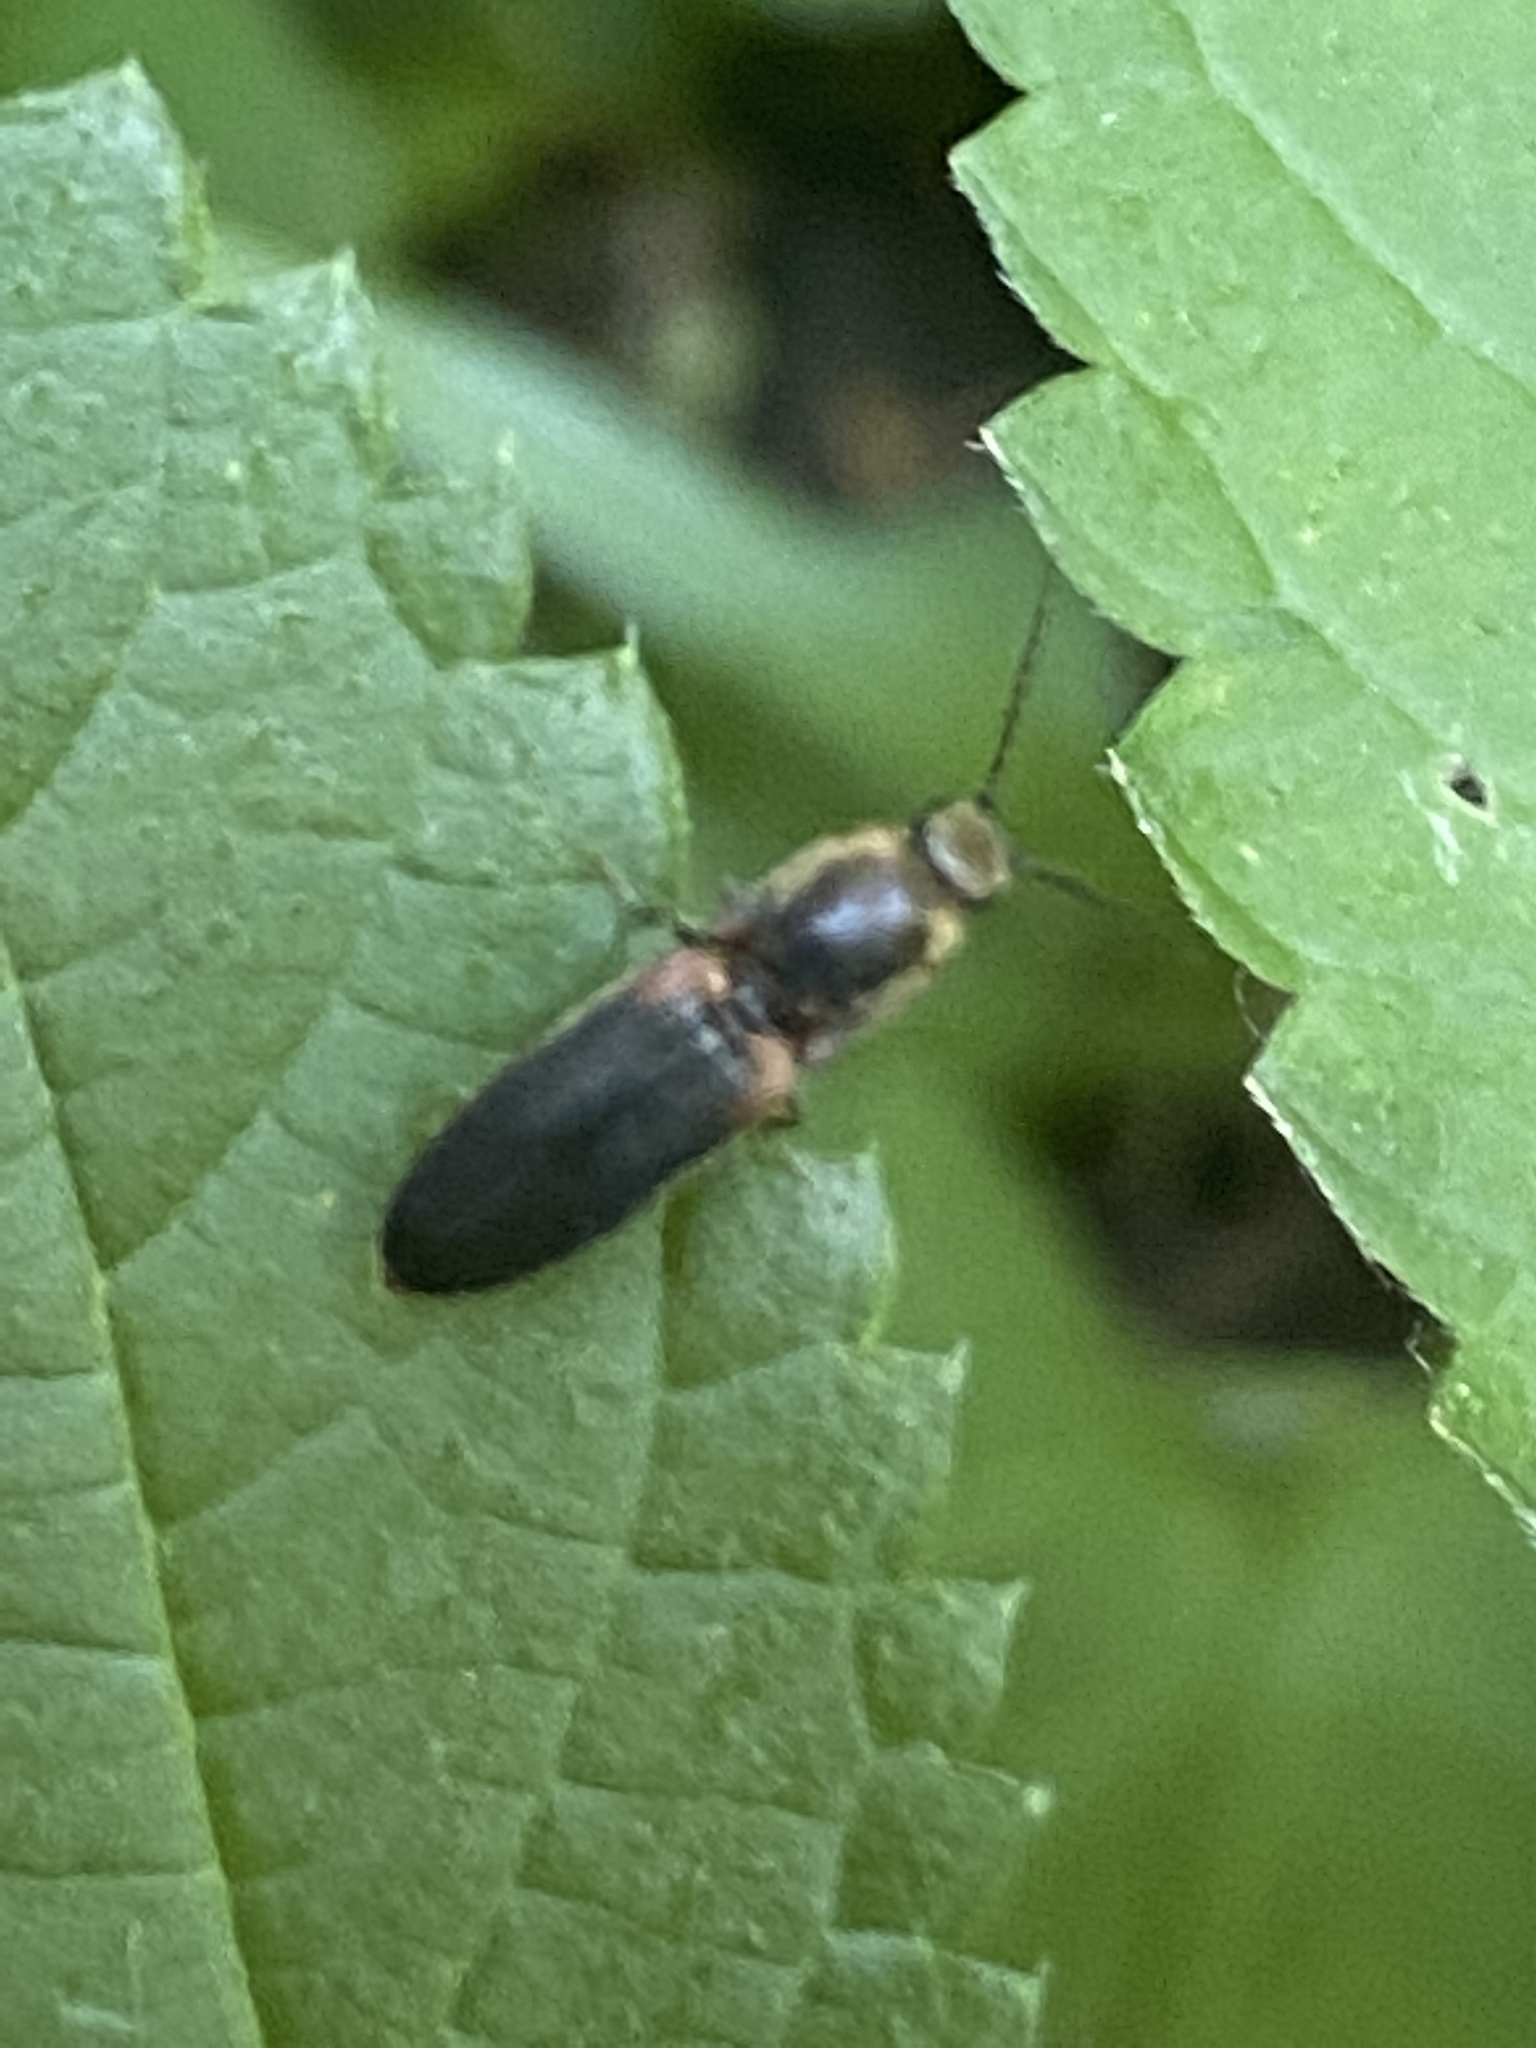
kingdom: Animalia
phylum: Arthropoda
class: Insecta
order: Coleoptera
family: Elateridae
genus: Athous
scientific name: Athous scapularis
